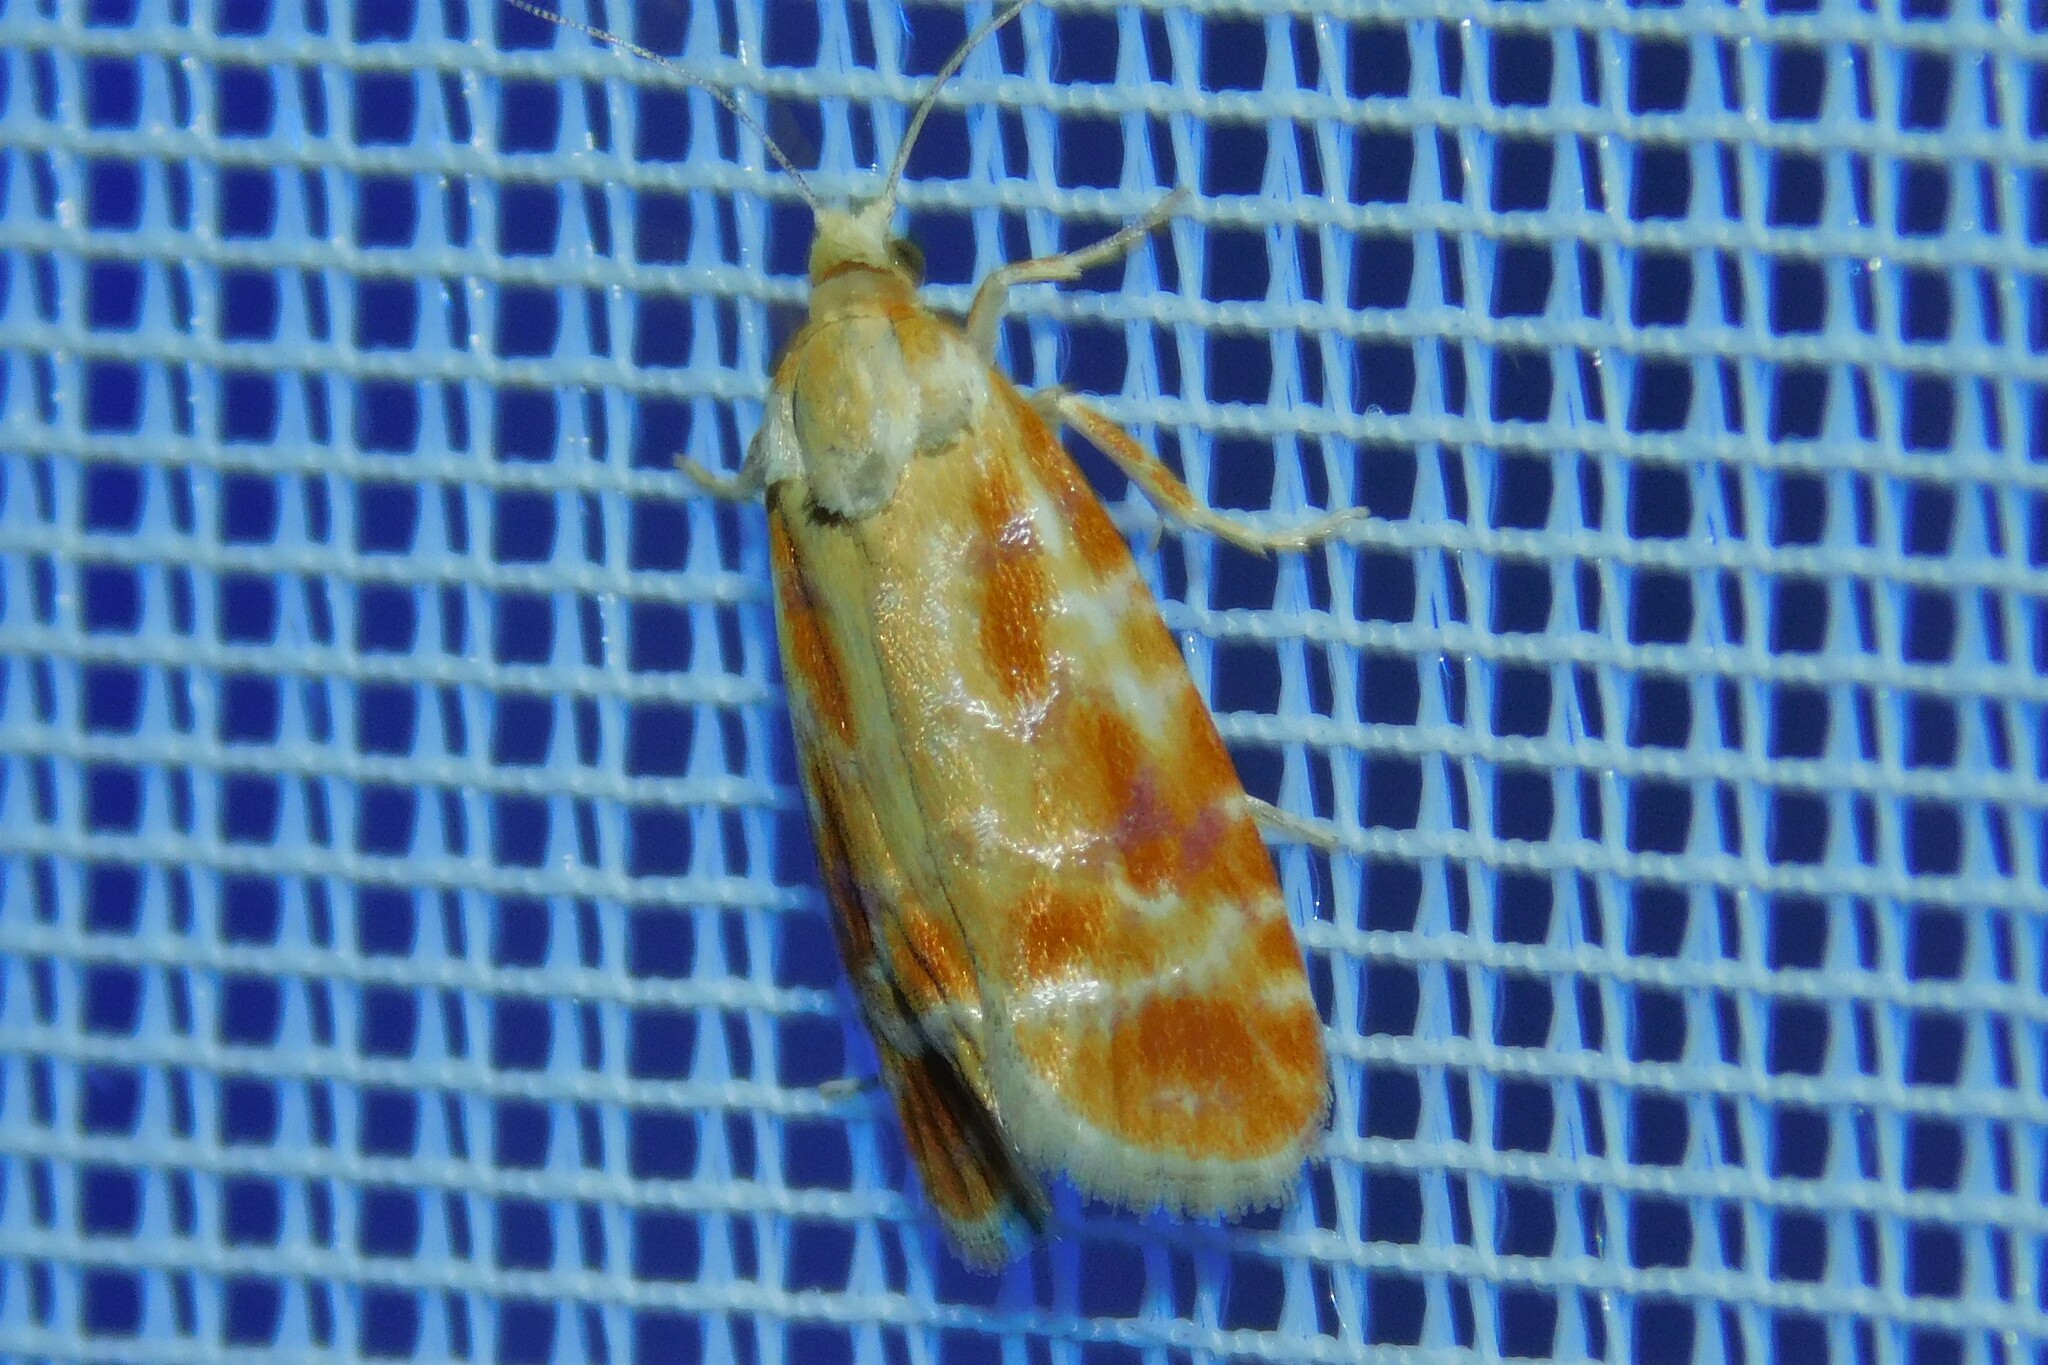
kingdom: Animalia
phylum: Arthropoda
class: Insecta
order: Lepidoptera
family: Tortricidae
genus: Rhyacionia
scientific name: Rhyacionia buoliana
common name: European pine shoot moth
